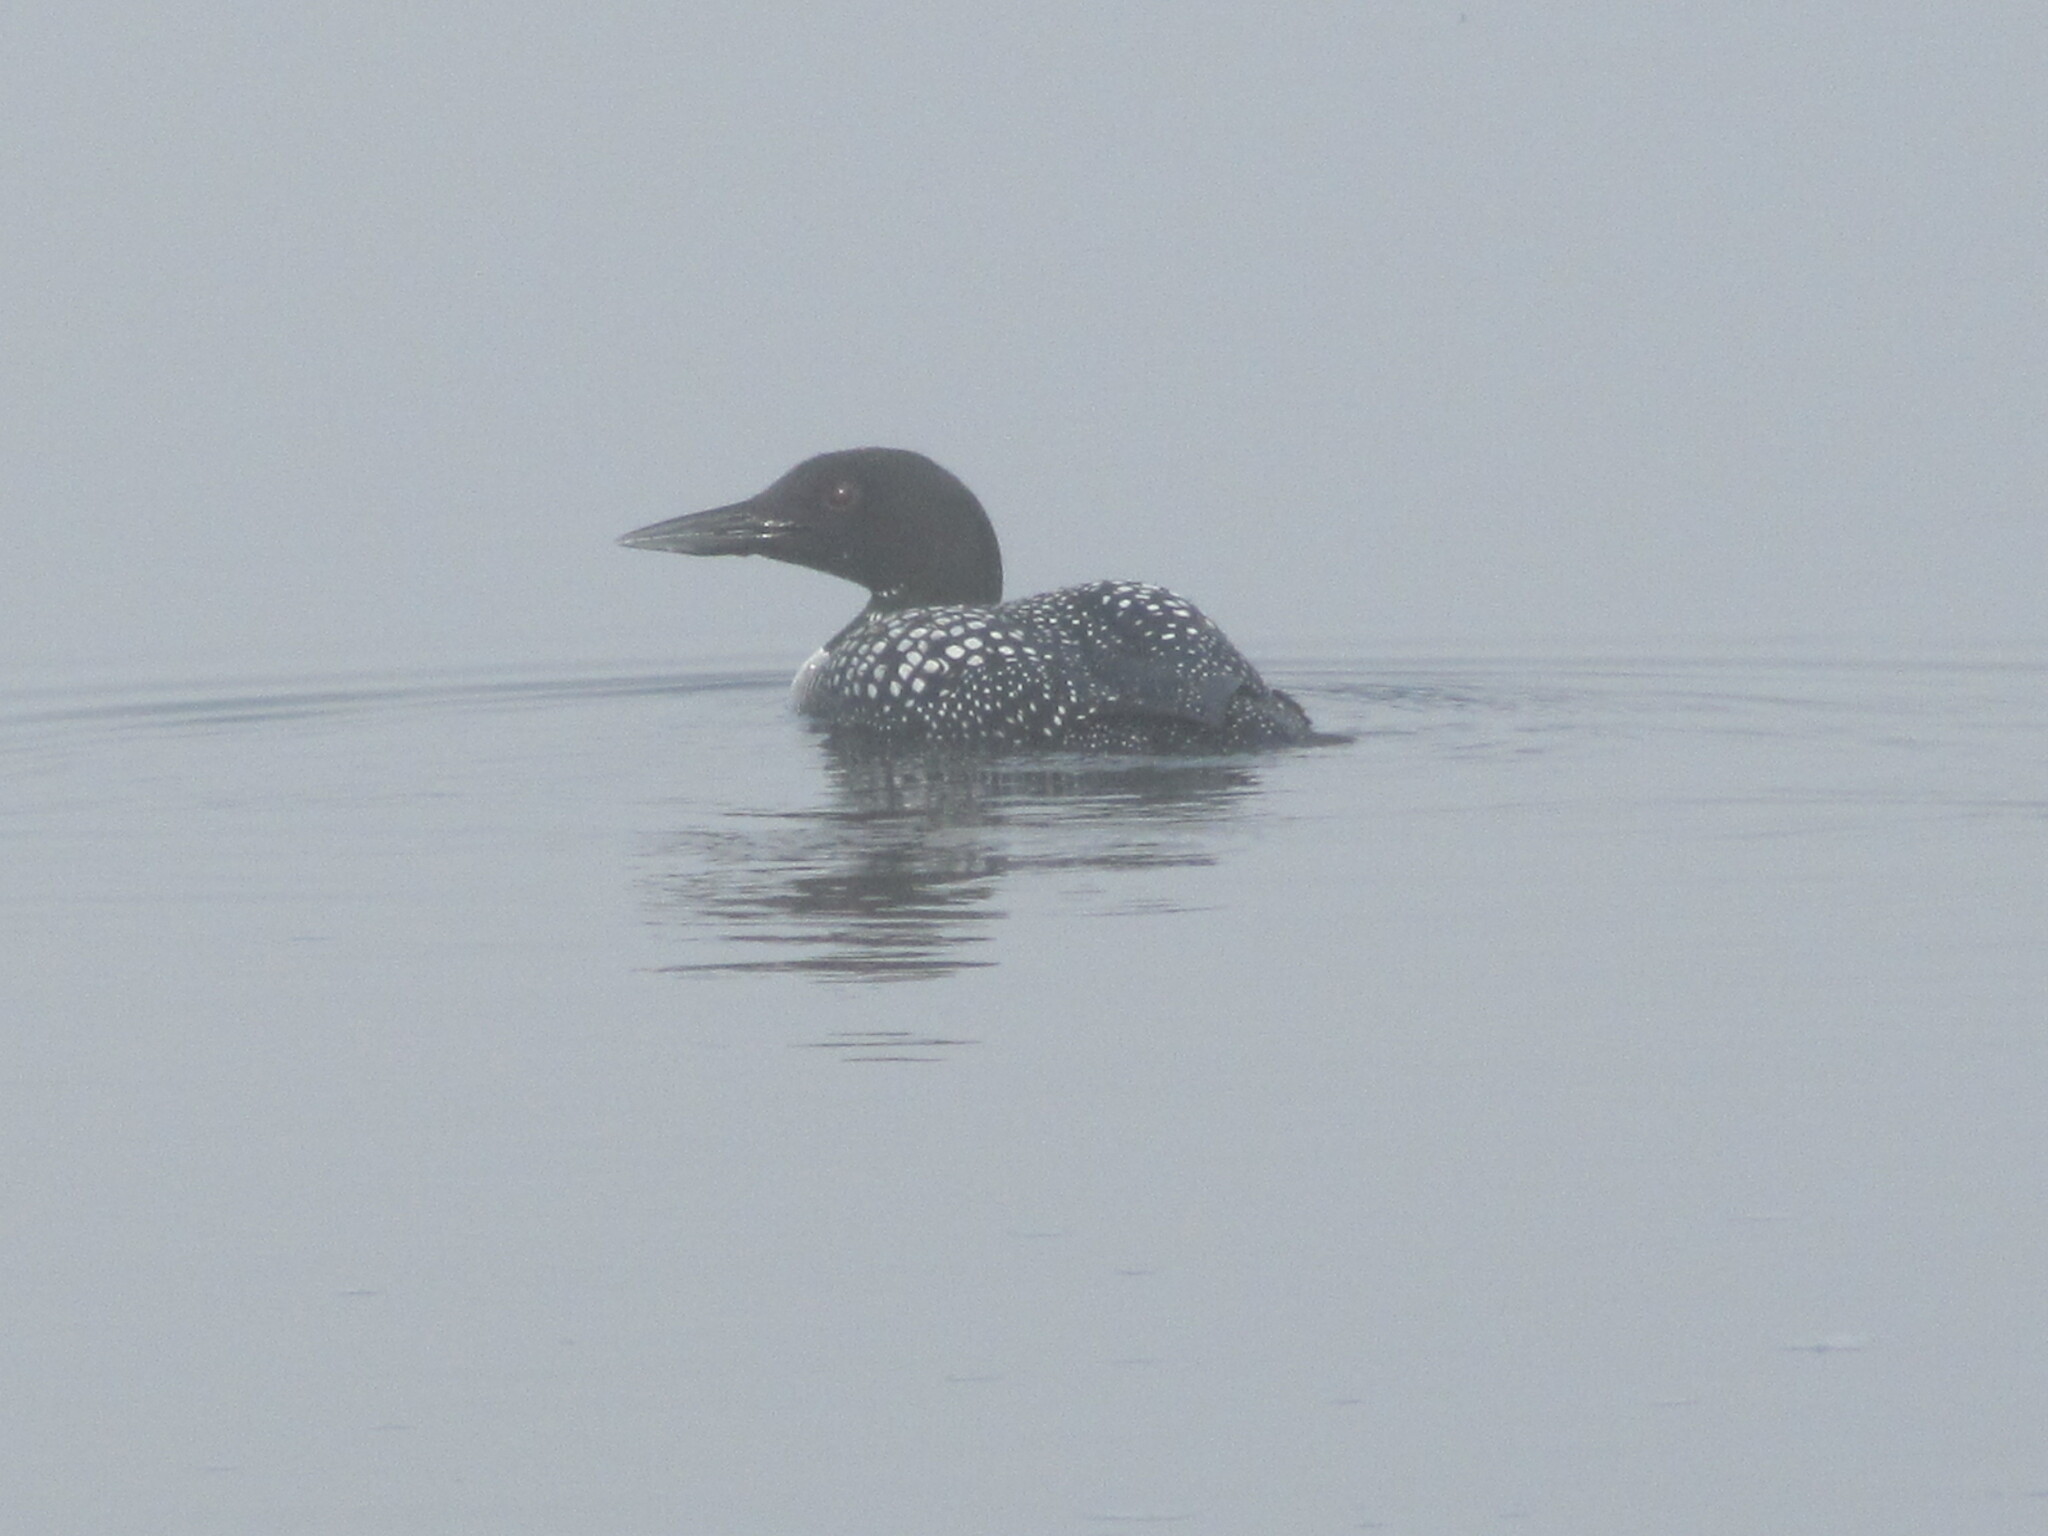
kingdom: Animalia
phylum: Chordata
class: Aves
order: Gaviiformes
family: Gaviidae
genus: Gavia
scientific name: Gavia immer
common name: Common loon
